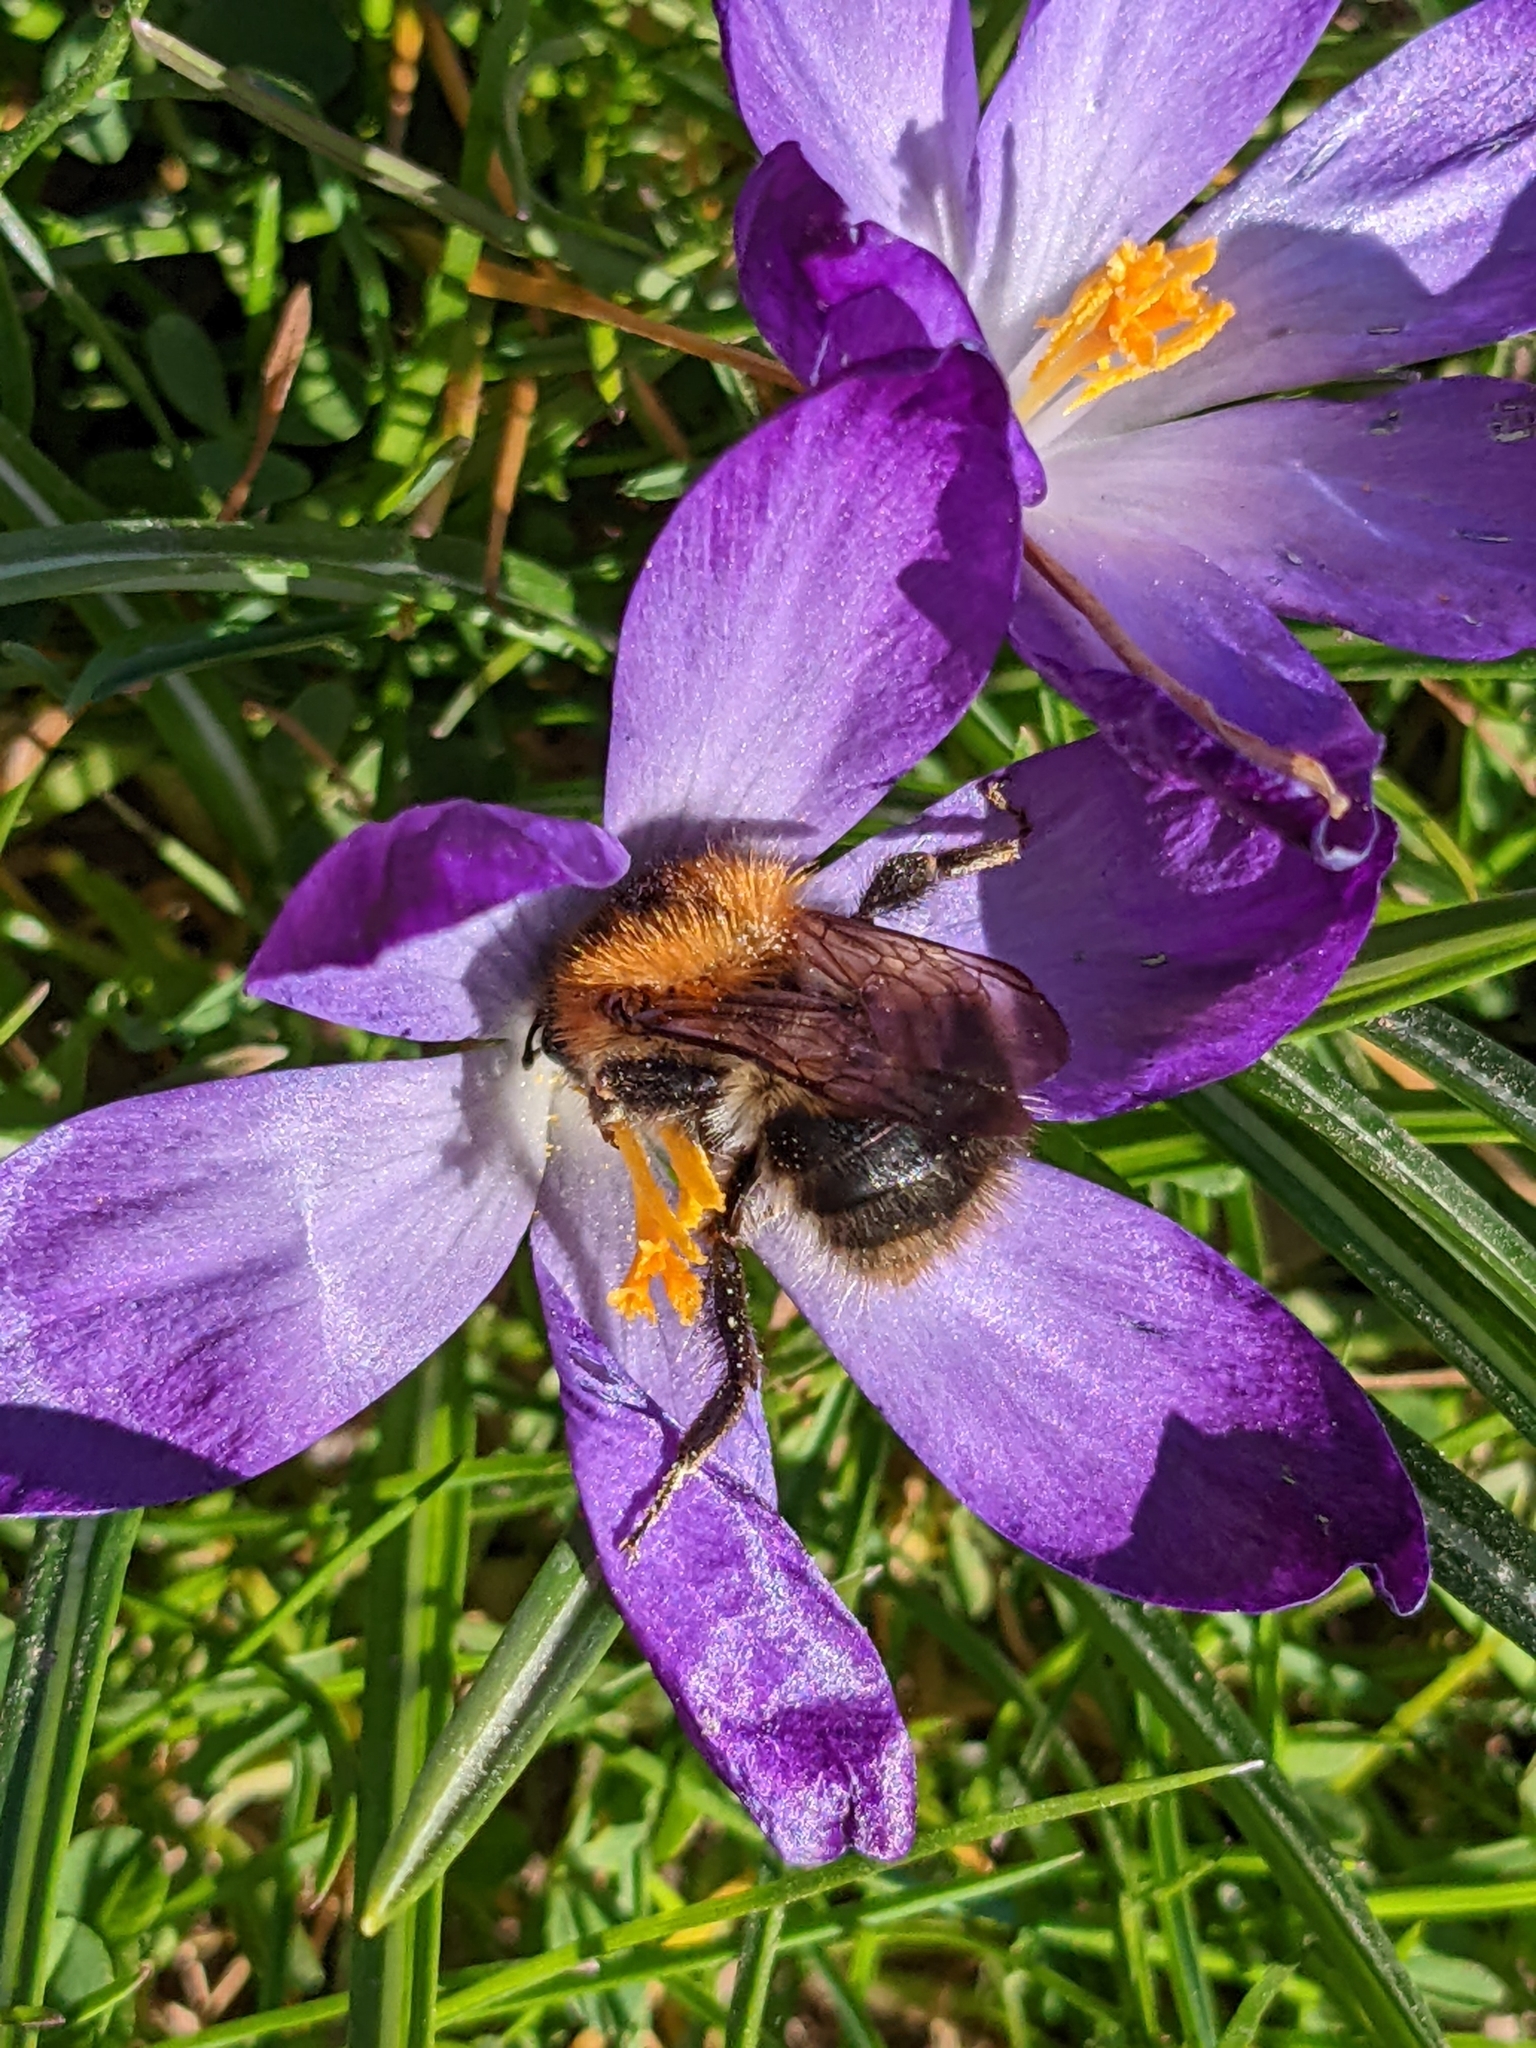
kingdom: Animalia
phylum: Arthropoda
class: Insecta
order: Hymenoptera
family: Apidae
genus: Bombus
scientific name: Bombus pascuorum
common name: Common carder bee
